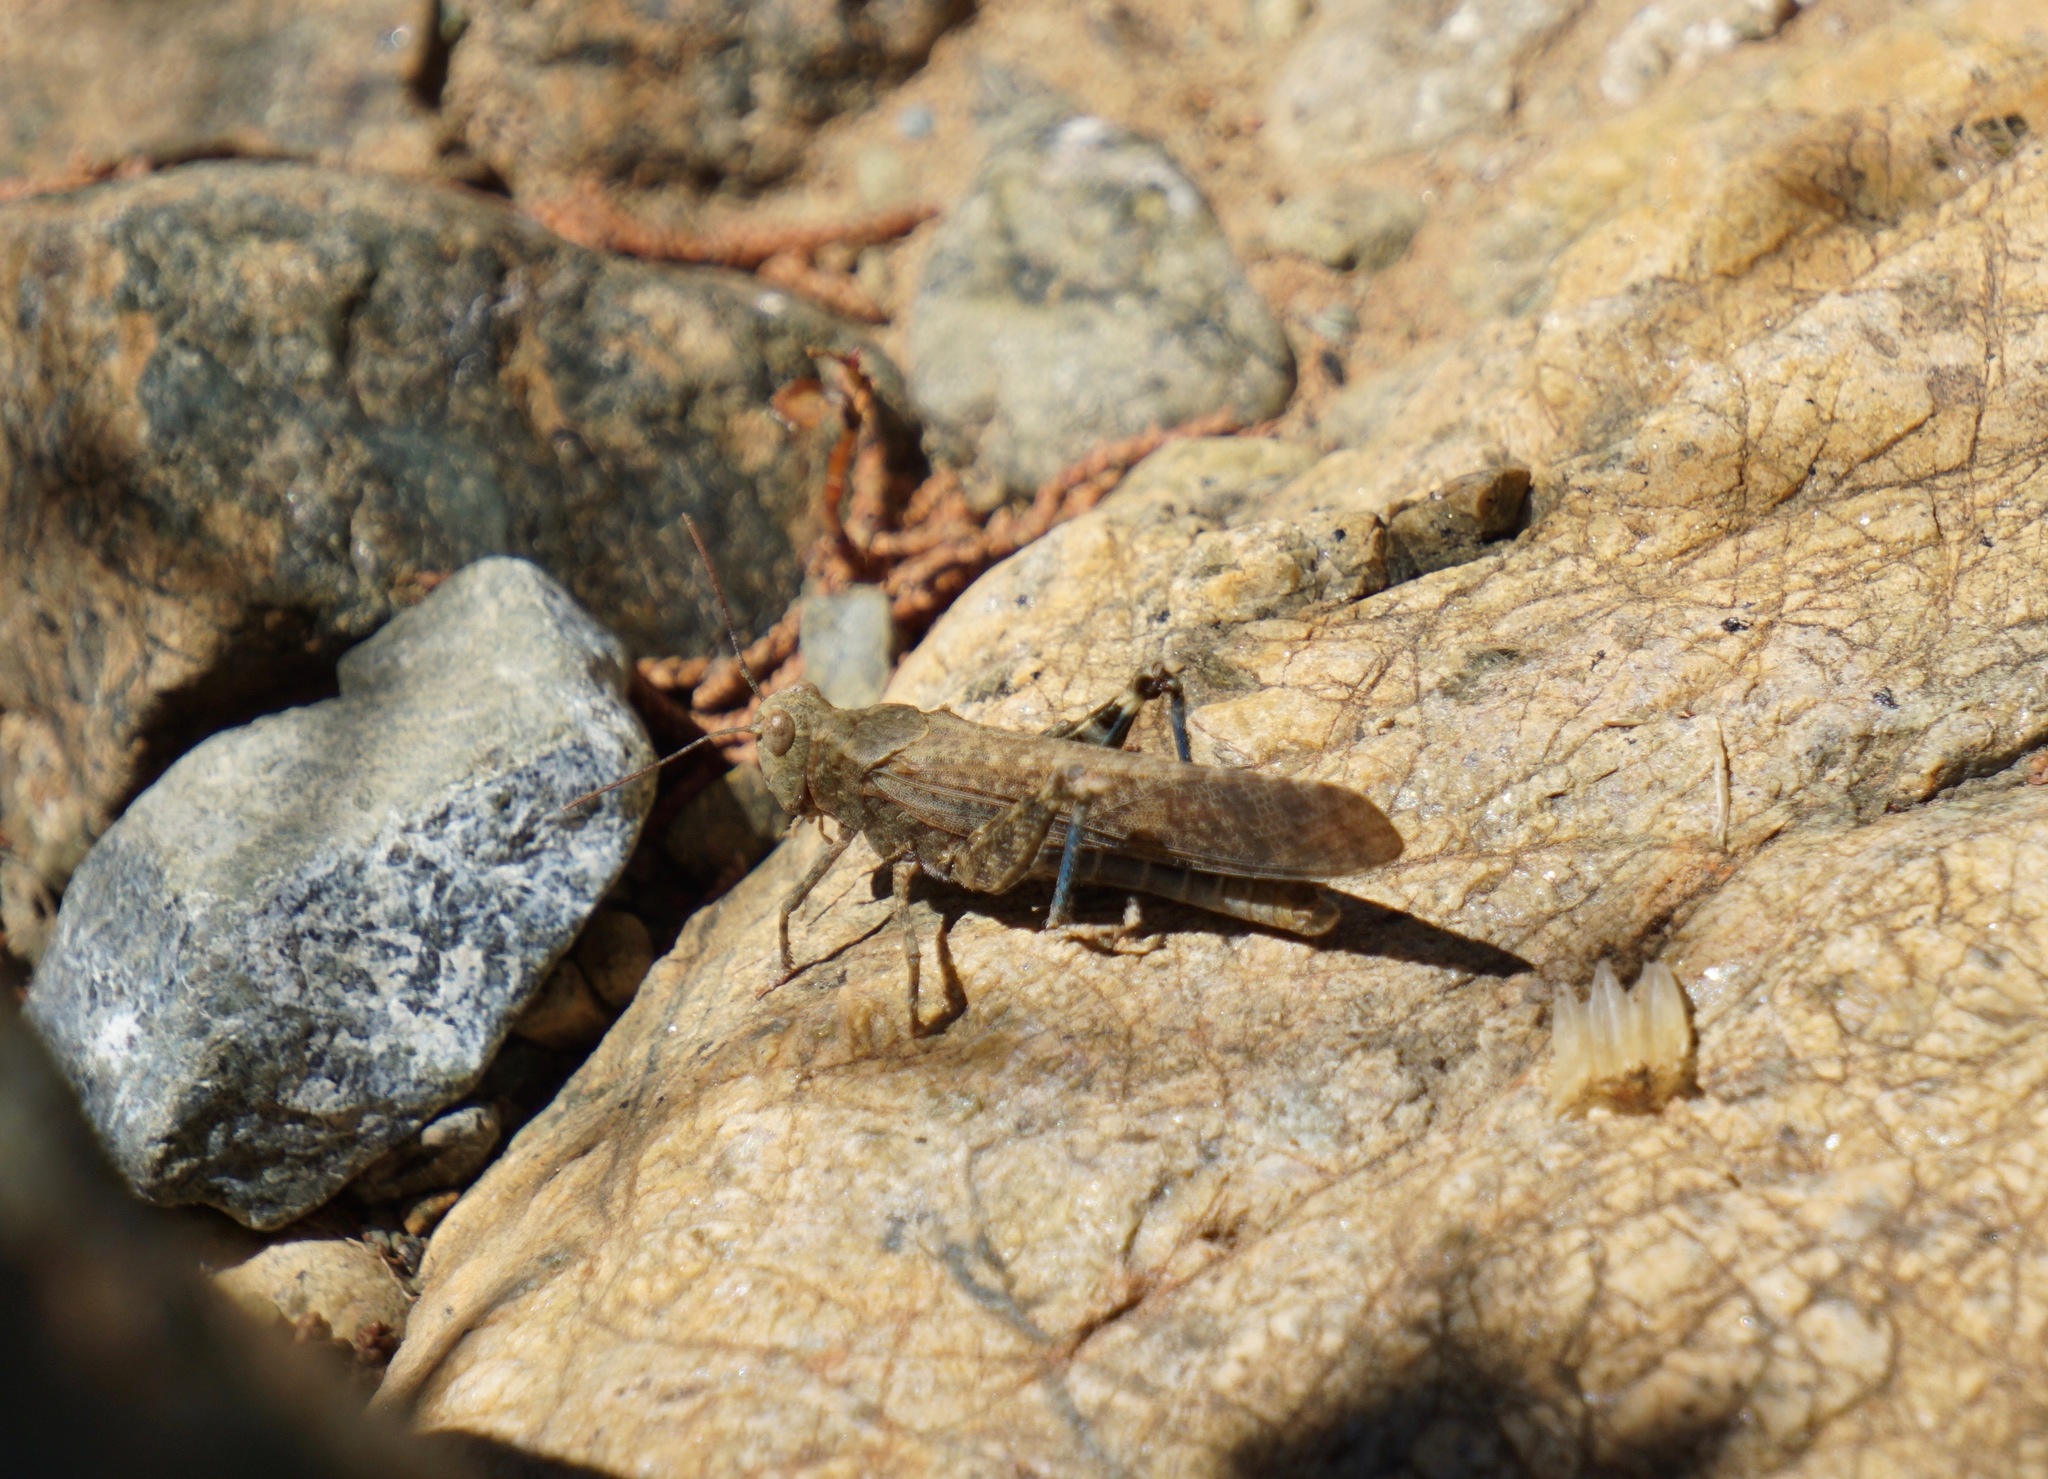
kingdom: Animalia
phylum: Arthropoda
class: Insecta
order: Orthoptera
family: Acrididae
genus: Circotettix
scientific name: Circotettix stenometopus
